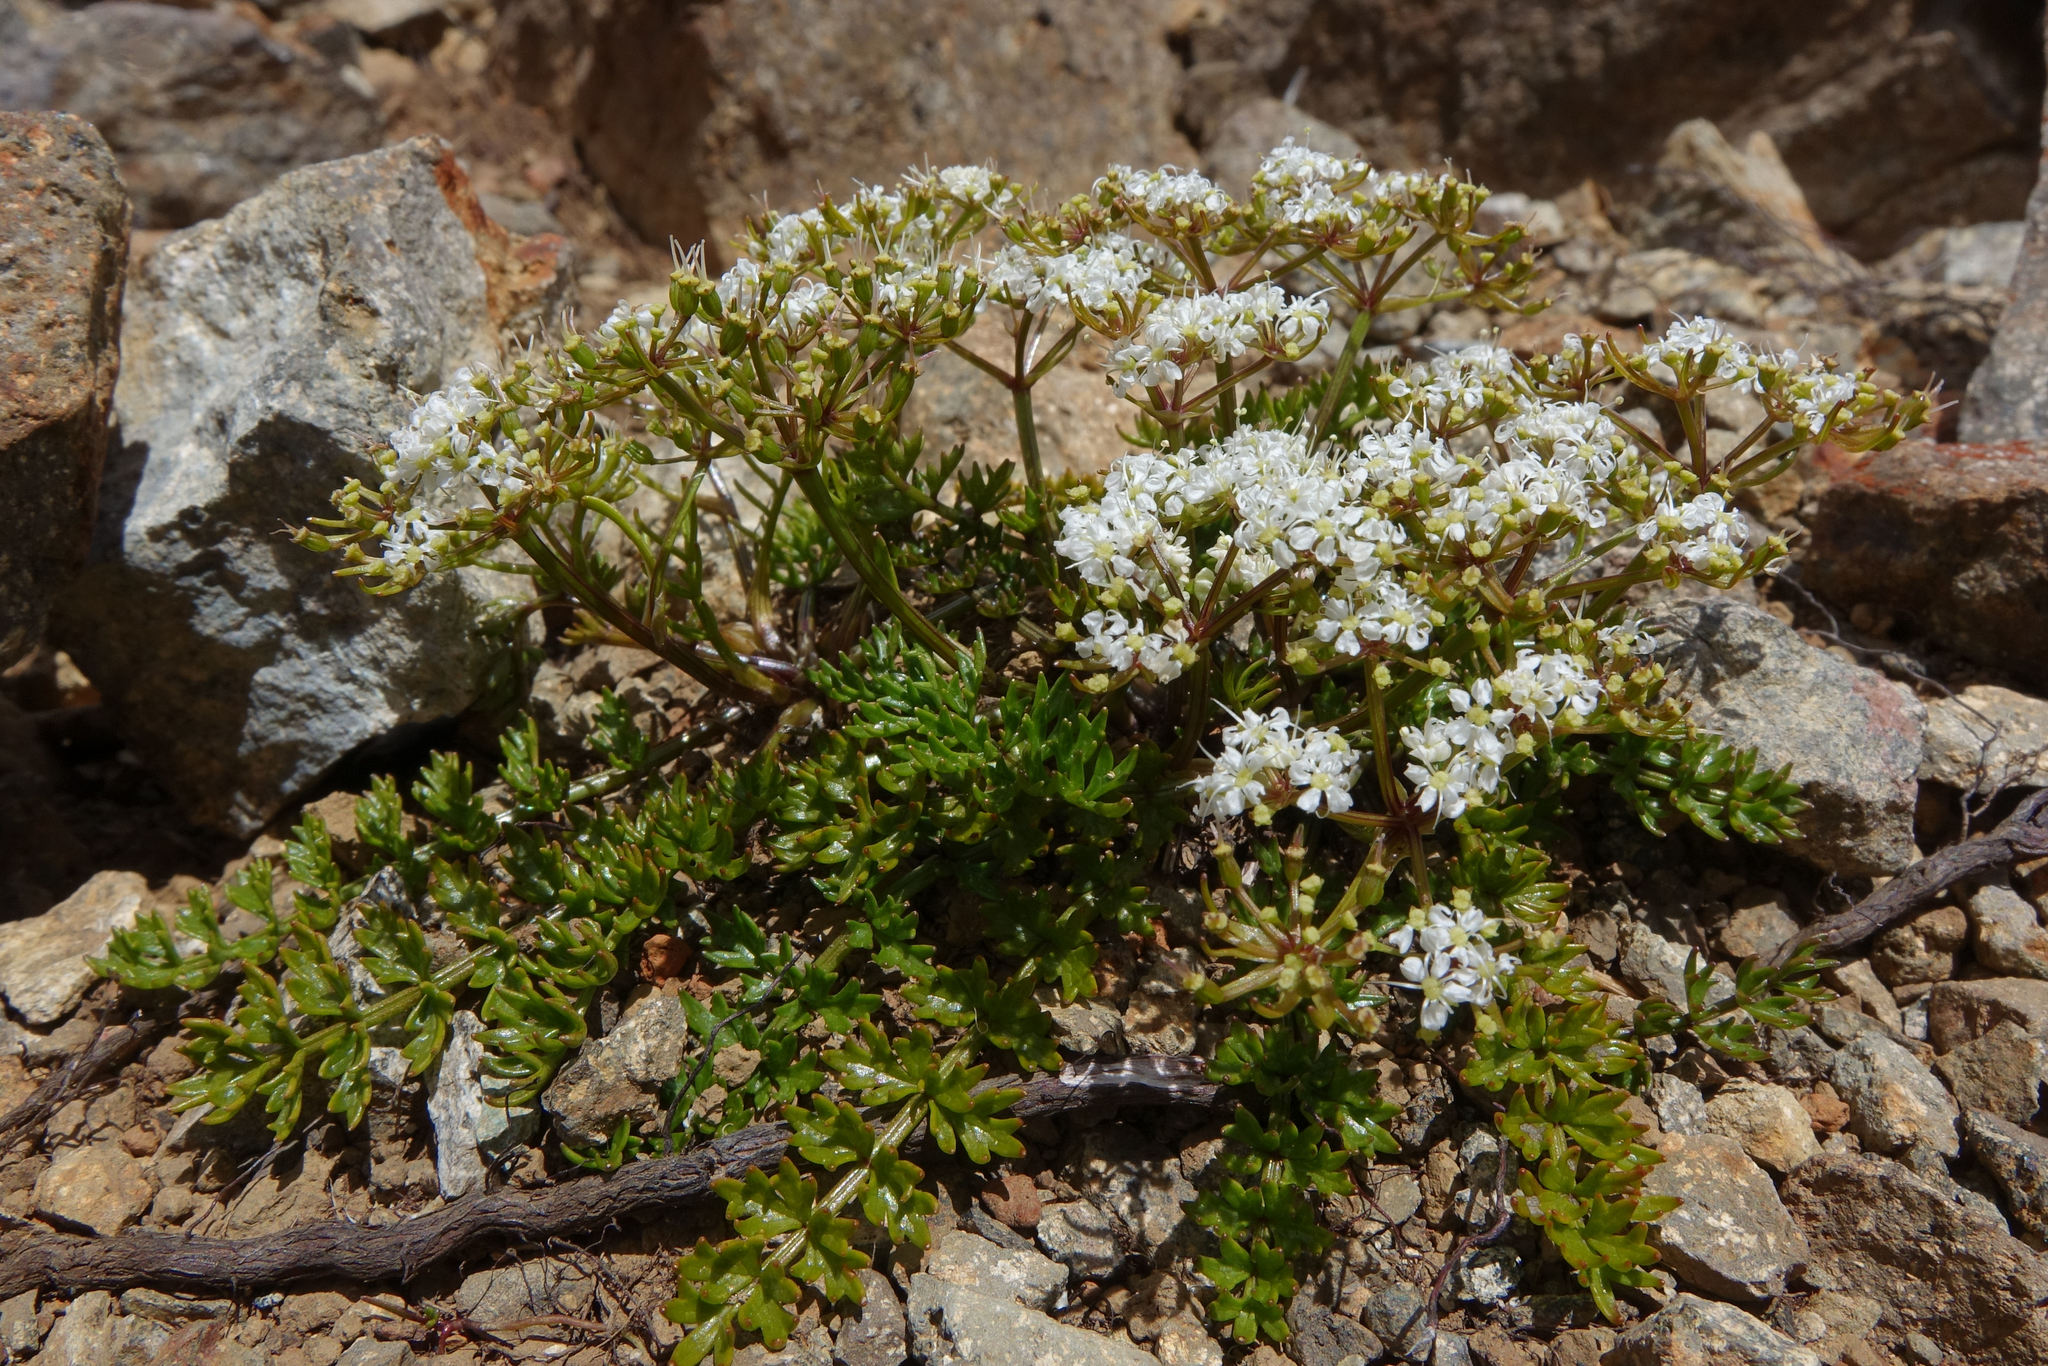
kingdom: Plantae
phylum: Tracheophyta
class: Magnoliopsida
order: Apiales
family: Apiaceae
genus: Gingidia
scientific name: Gingidia decipiens
